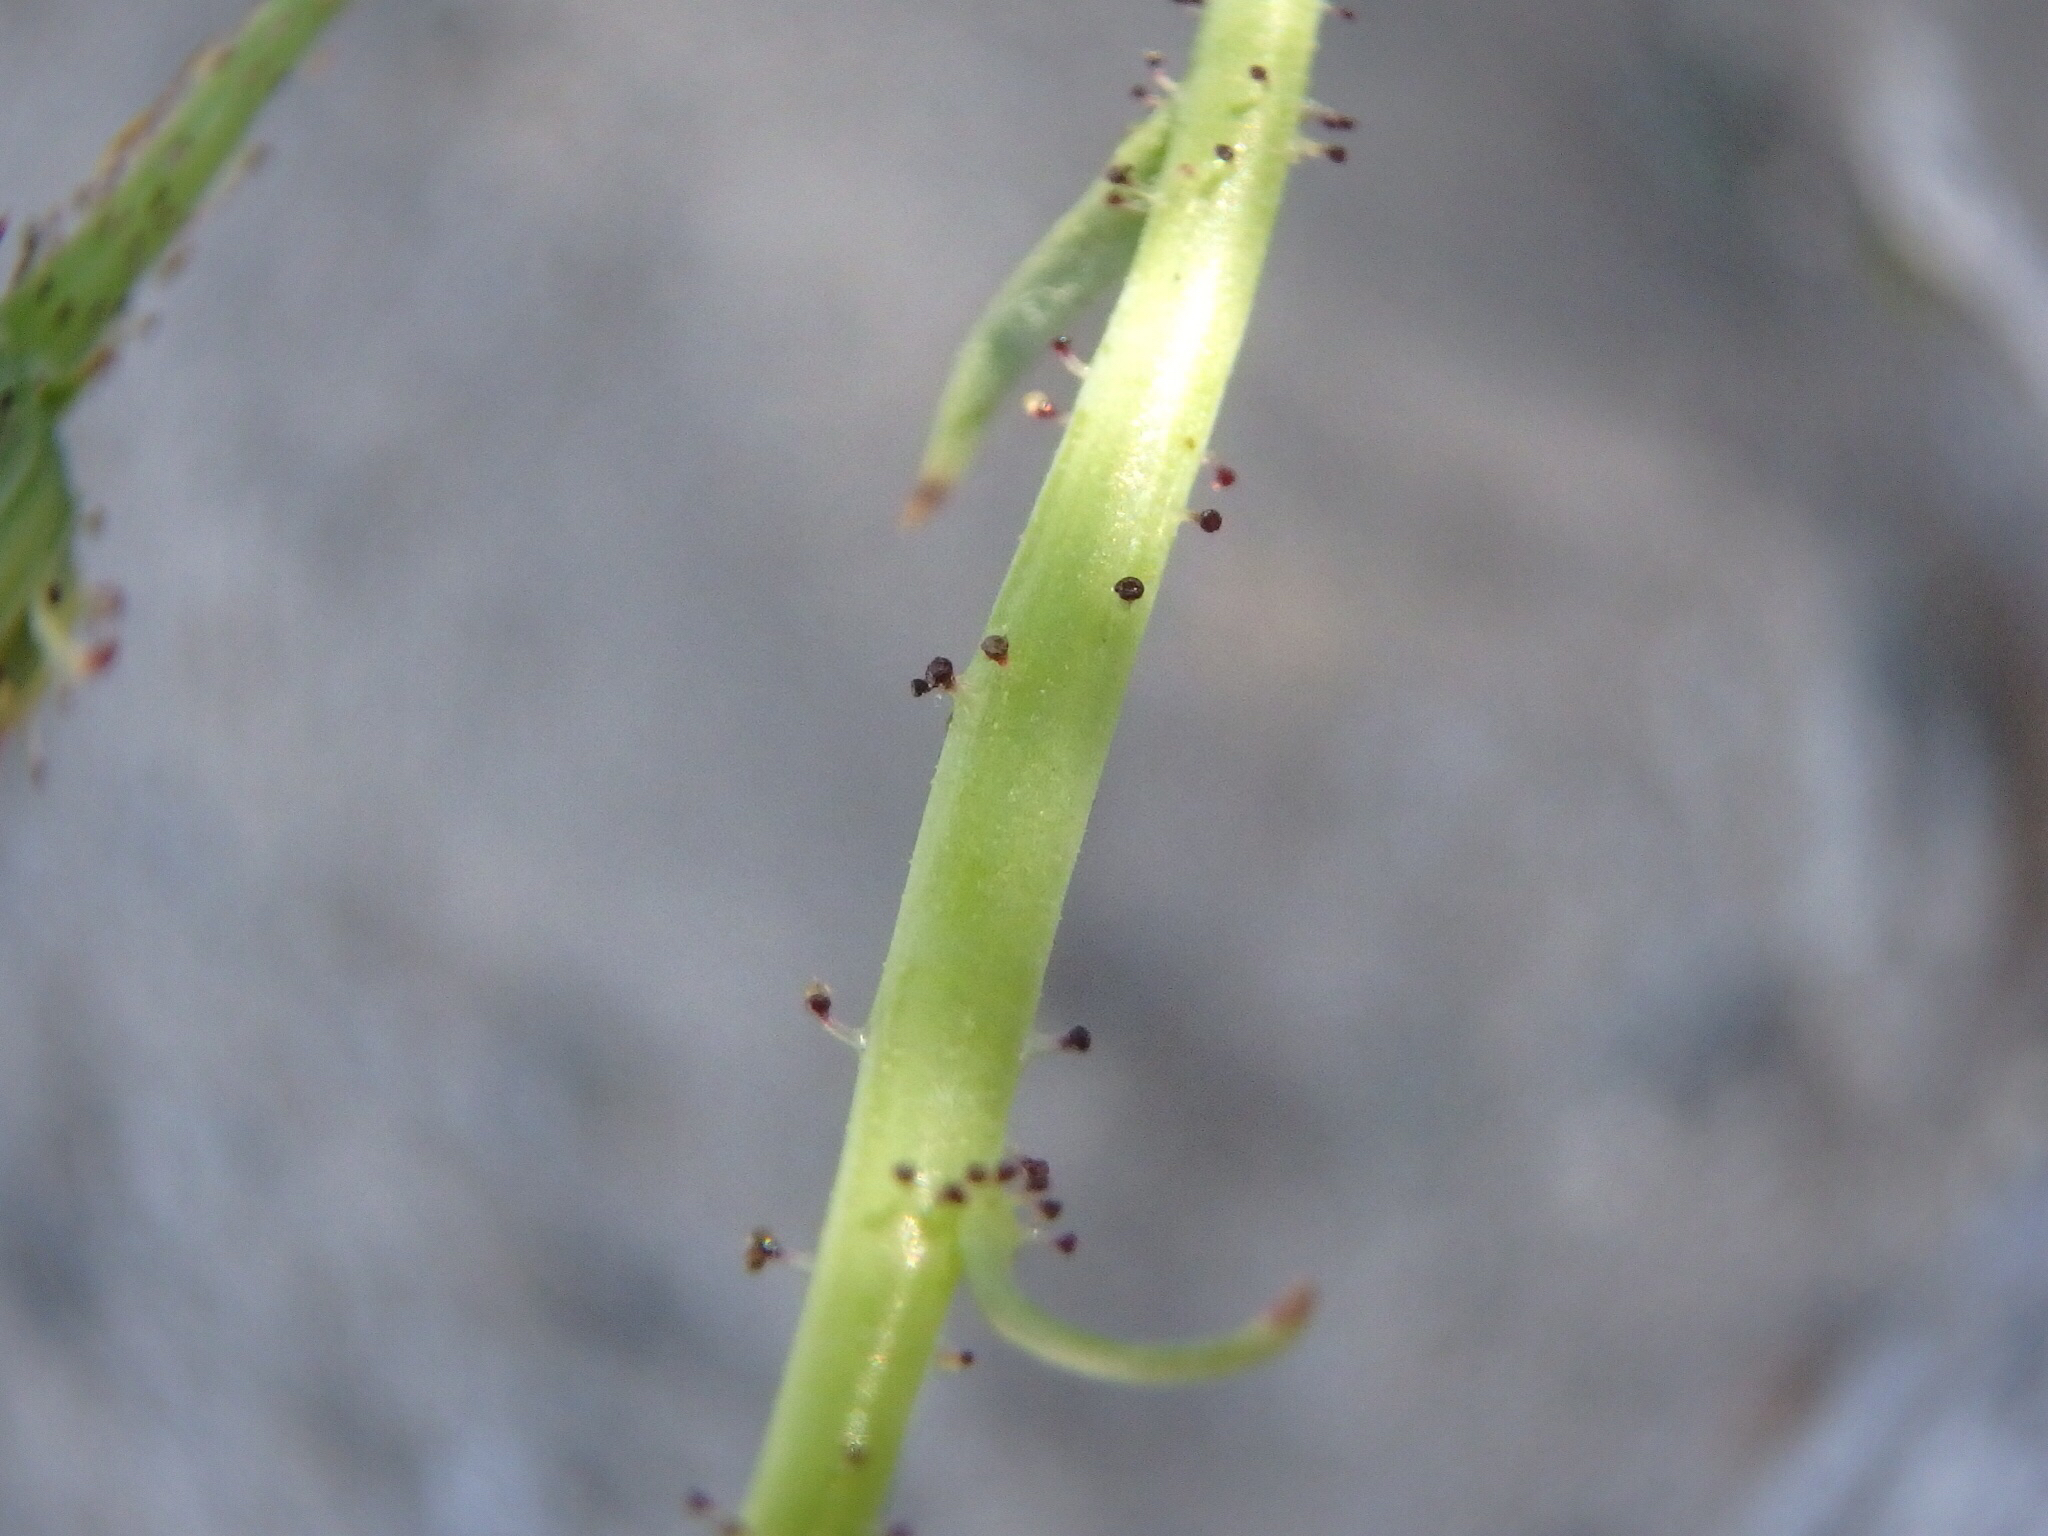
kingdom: Plantae
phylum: Tracheophyta
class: Magnoliopsida
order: Asterales
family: Asteraceae
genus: Calycoseris
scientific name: Calycoseris parryi
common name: Yellow tackstem
